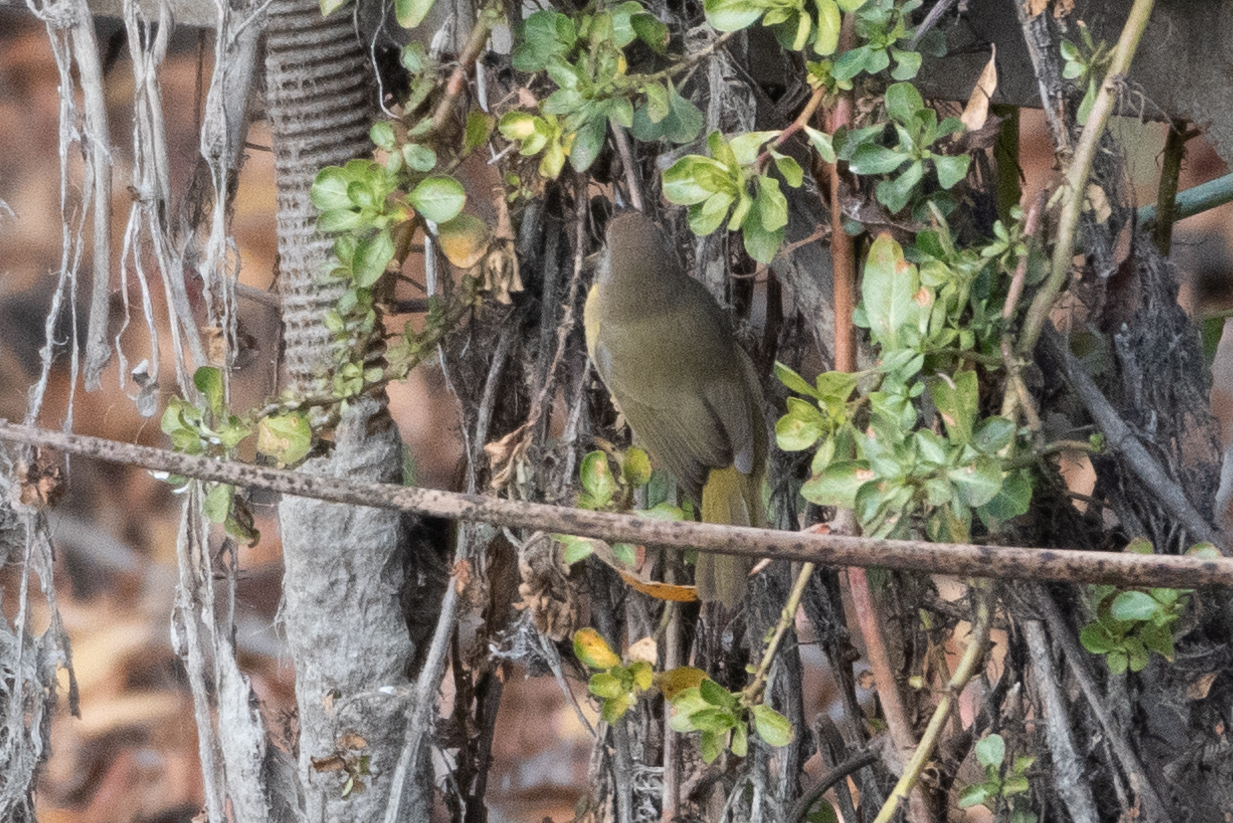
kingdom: Animalia
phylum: Chordata
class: Aves
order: Passeriformes
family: Parulidae
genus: Geothlypis
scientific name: Geothlypis trichas
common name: Common yellowthroat
